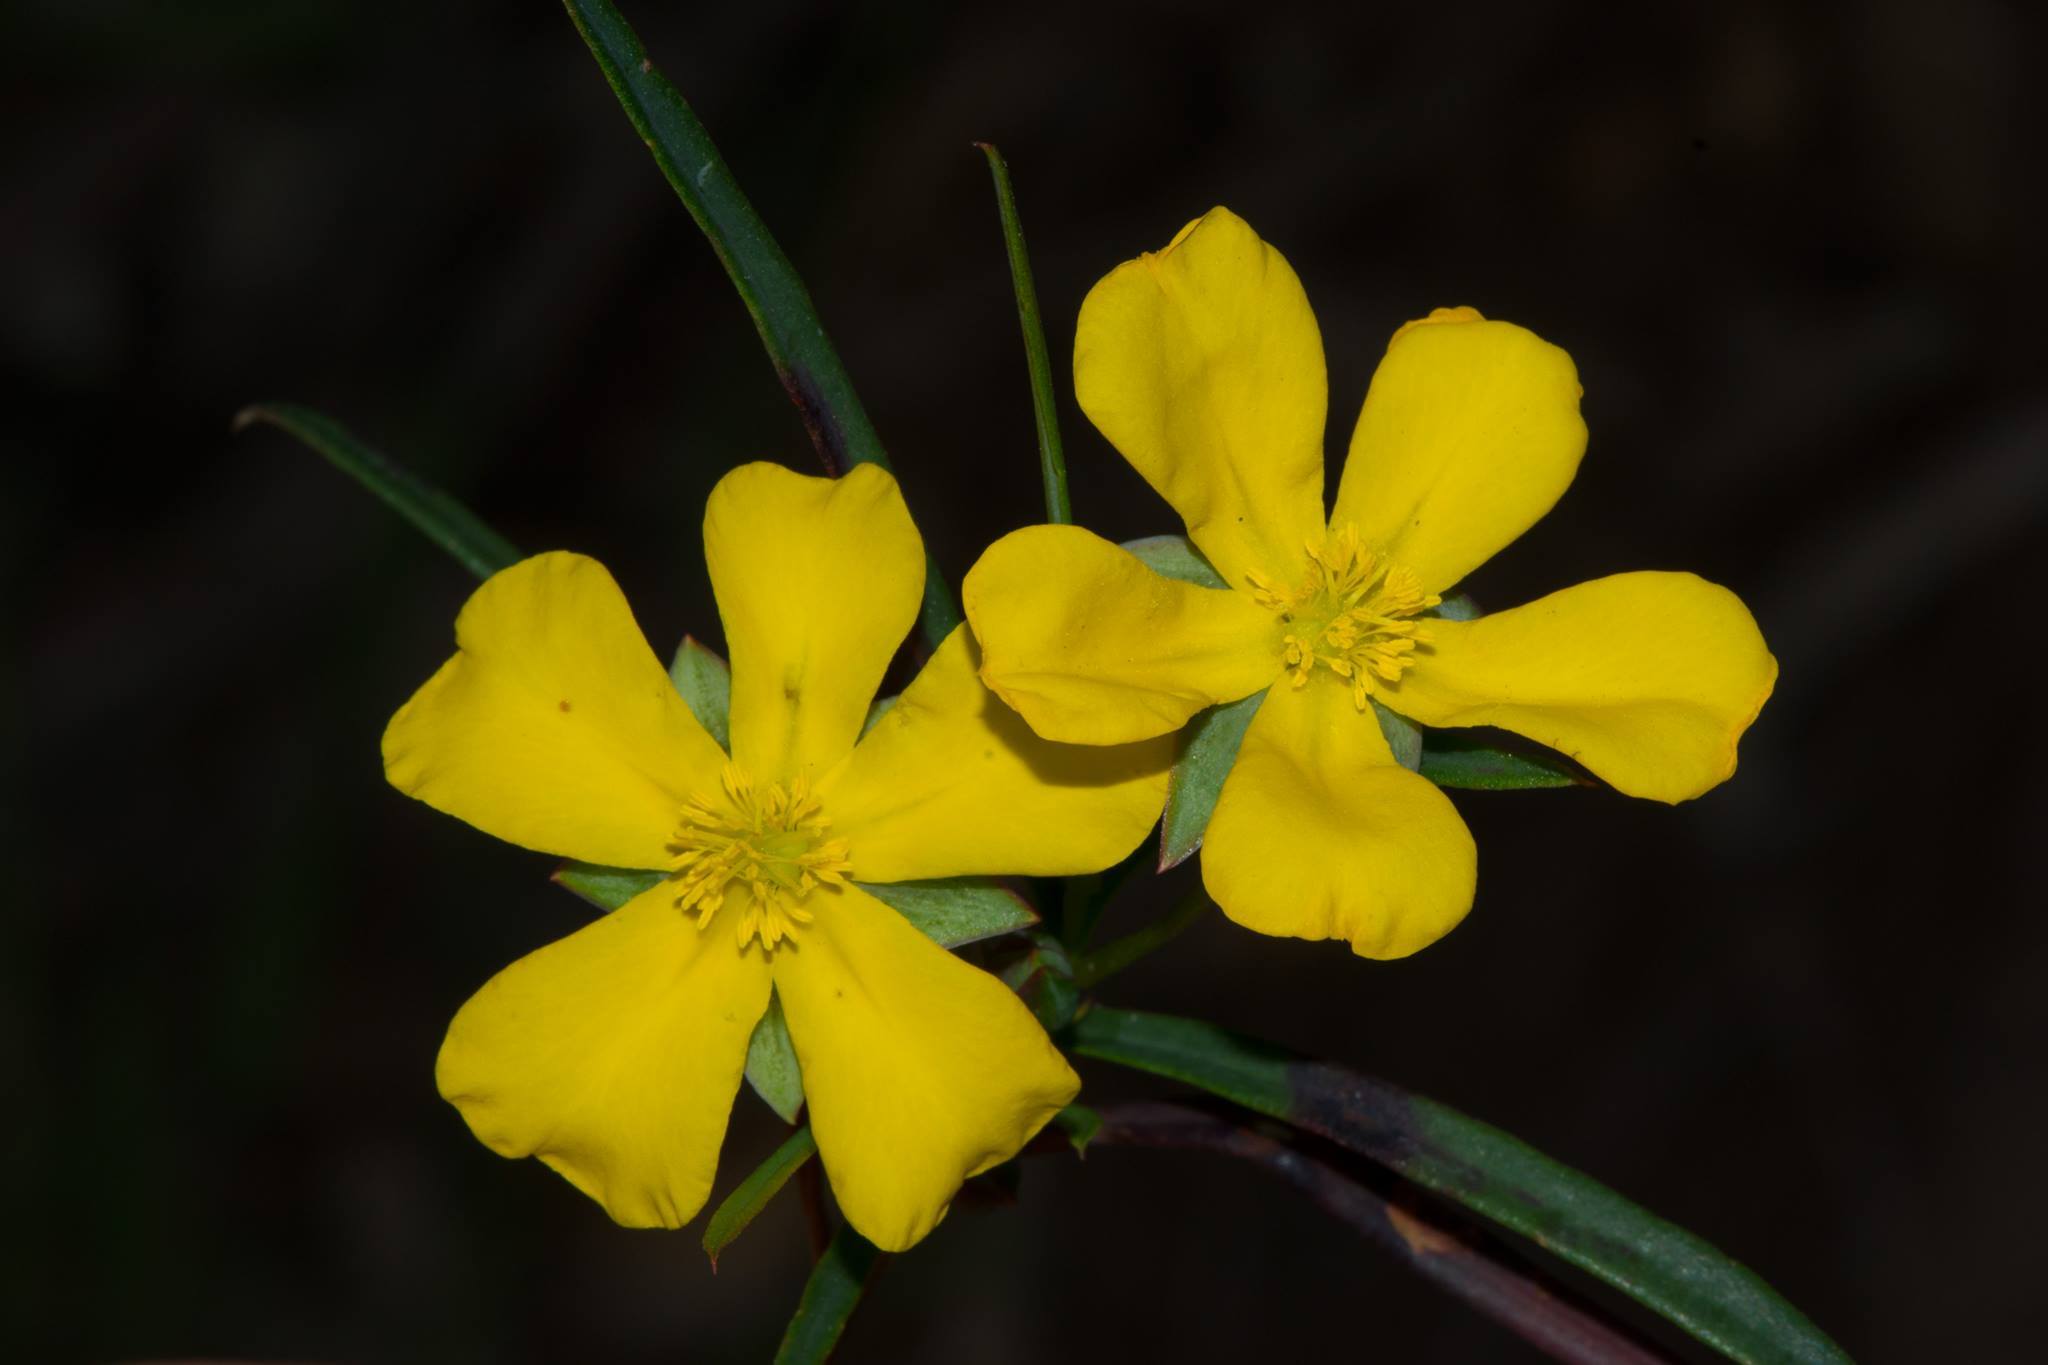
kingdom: Plantae
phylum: Tracheophyta
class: Magnoliopsida
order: Dilleniales
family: Dilleniaceae
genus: Hibbertia
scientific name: Hibbertia cunninghamii
